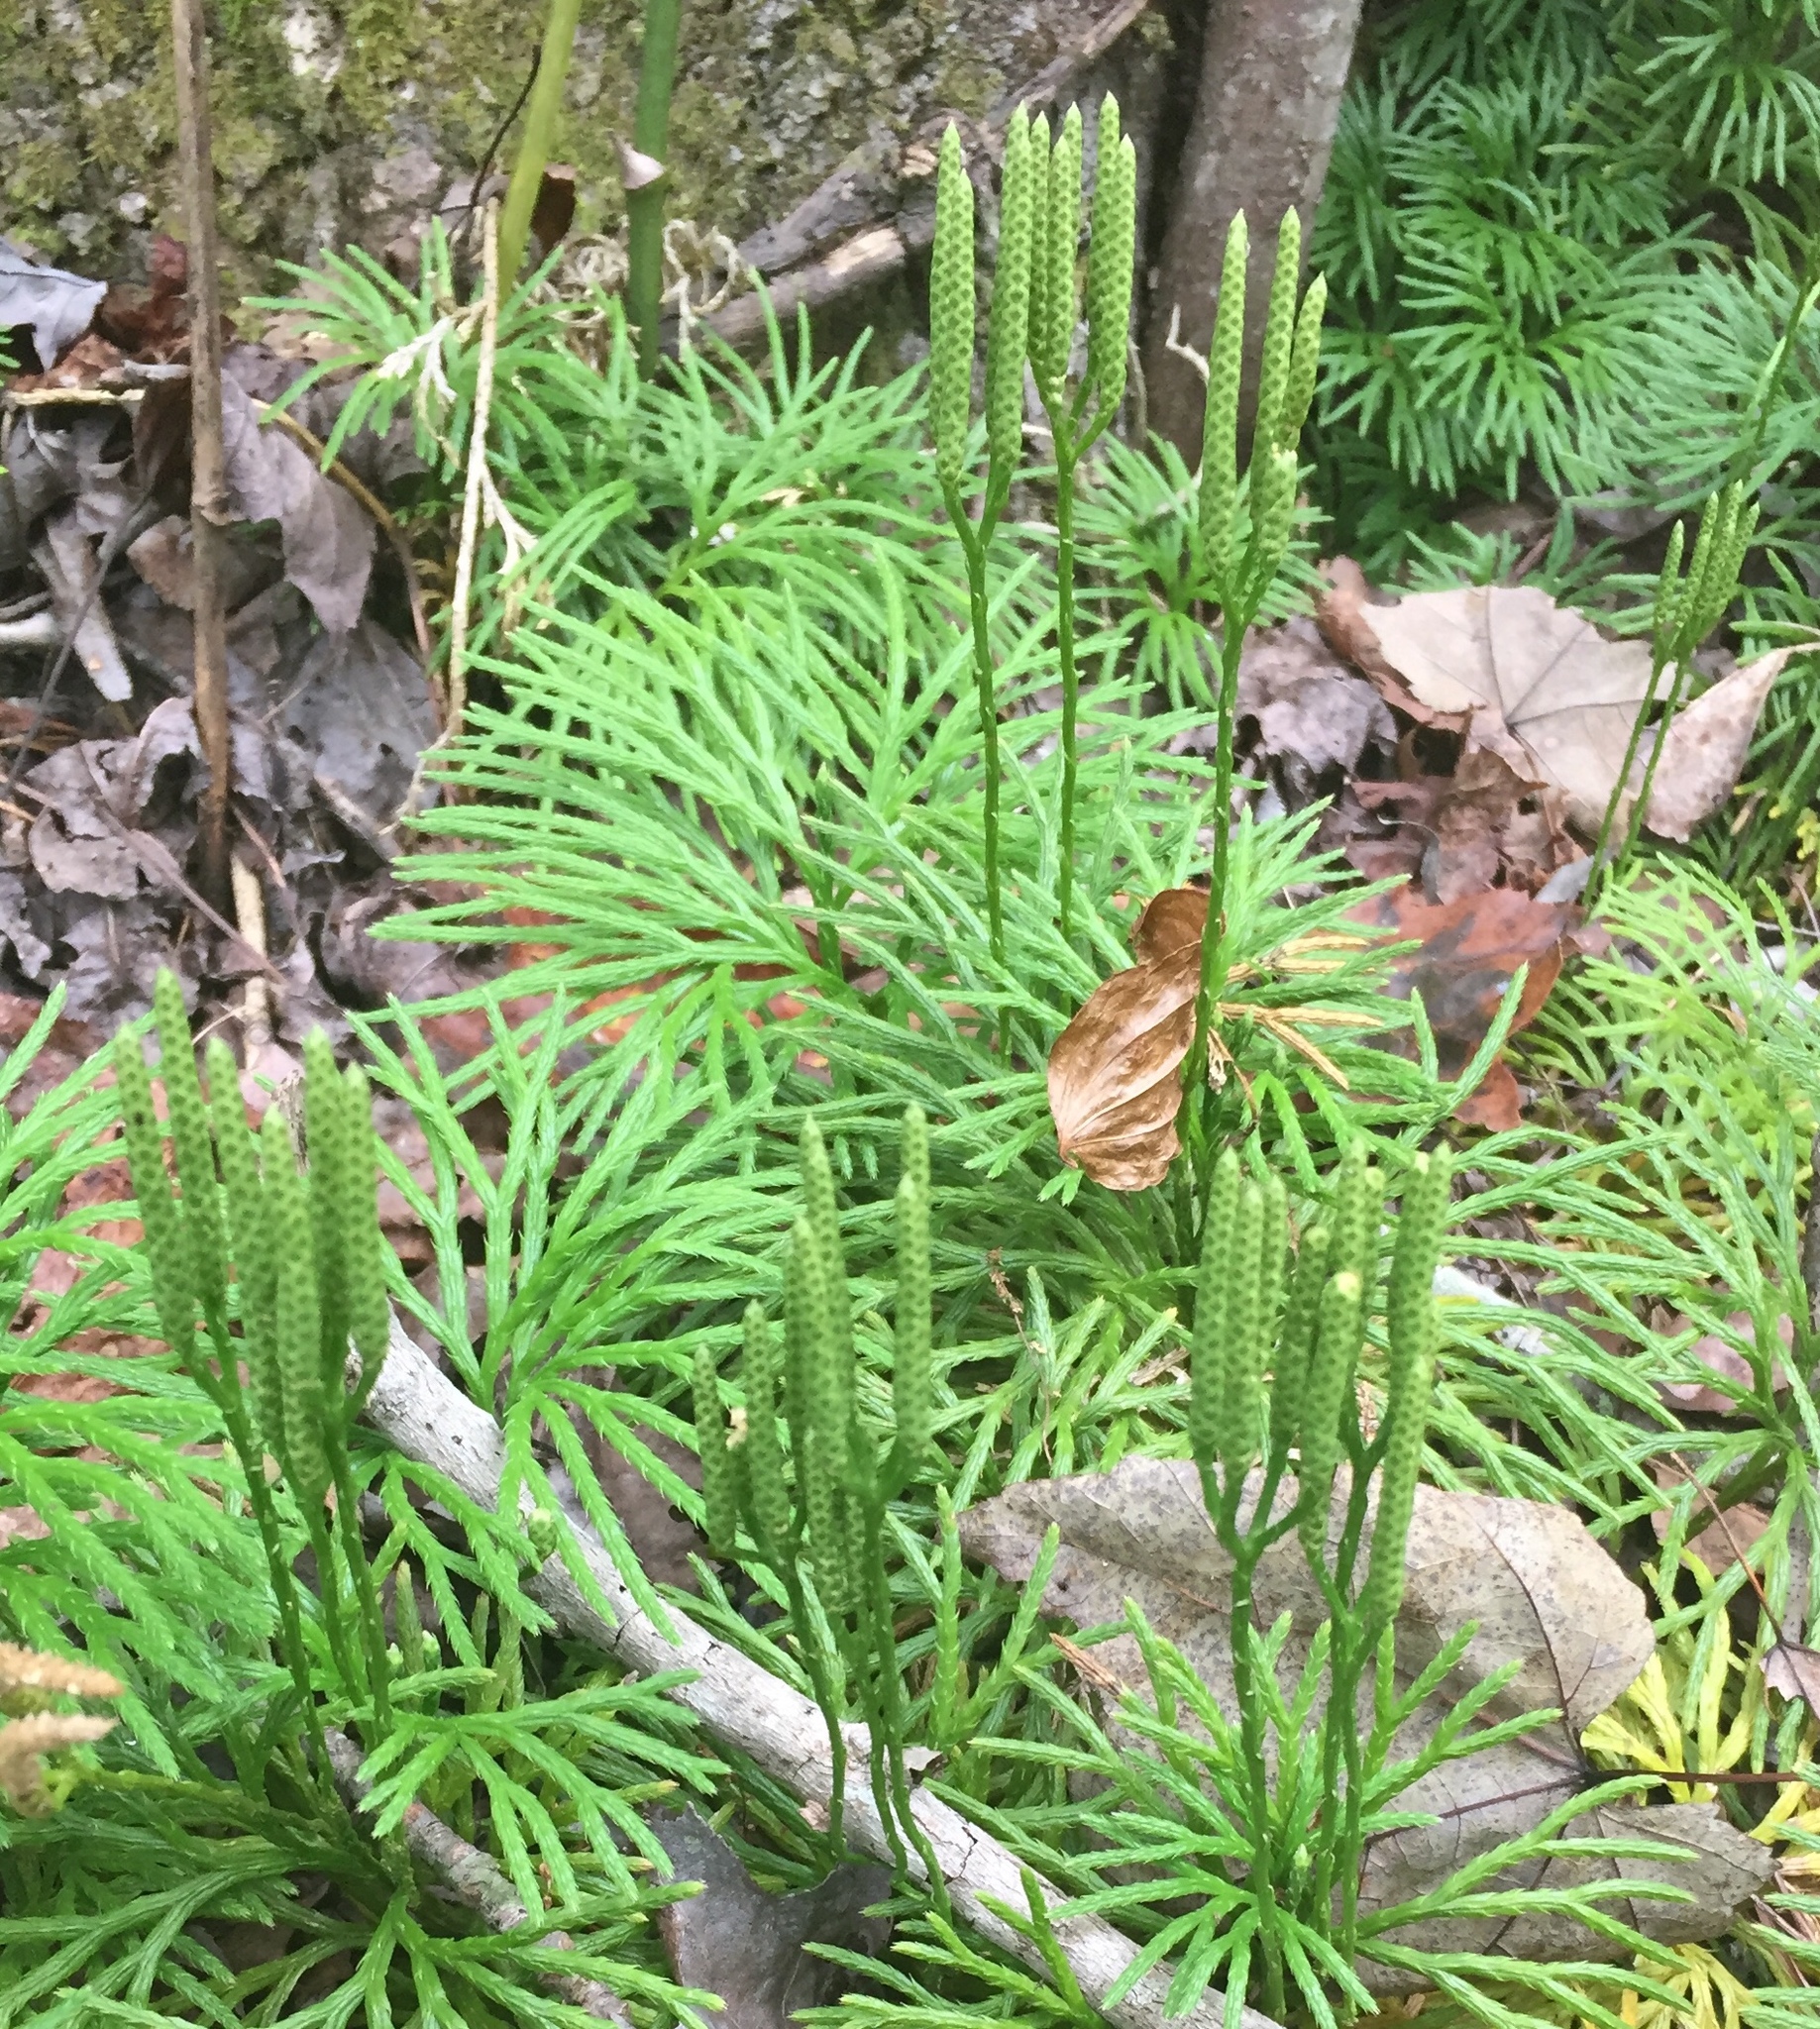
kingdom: Plantae
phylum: Tracheophyta
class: Lycopodiopsida
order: Lycopodiales
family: Lycopodiaceae
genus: Diphasiastrum
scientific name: Diphasiastrum digitatum
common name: Southern running-pine
